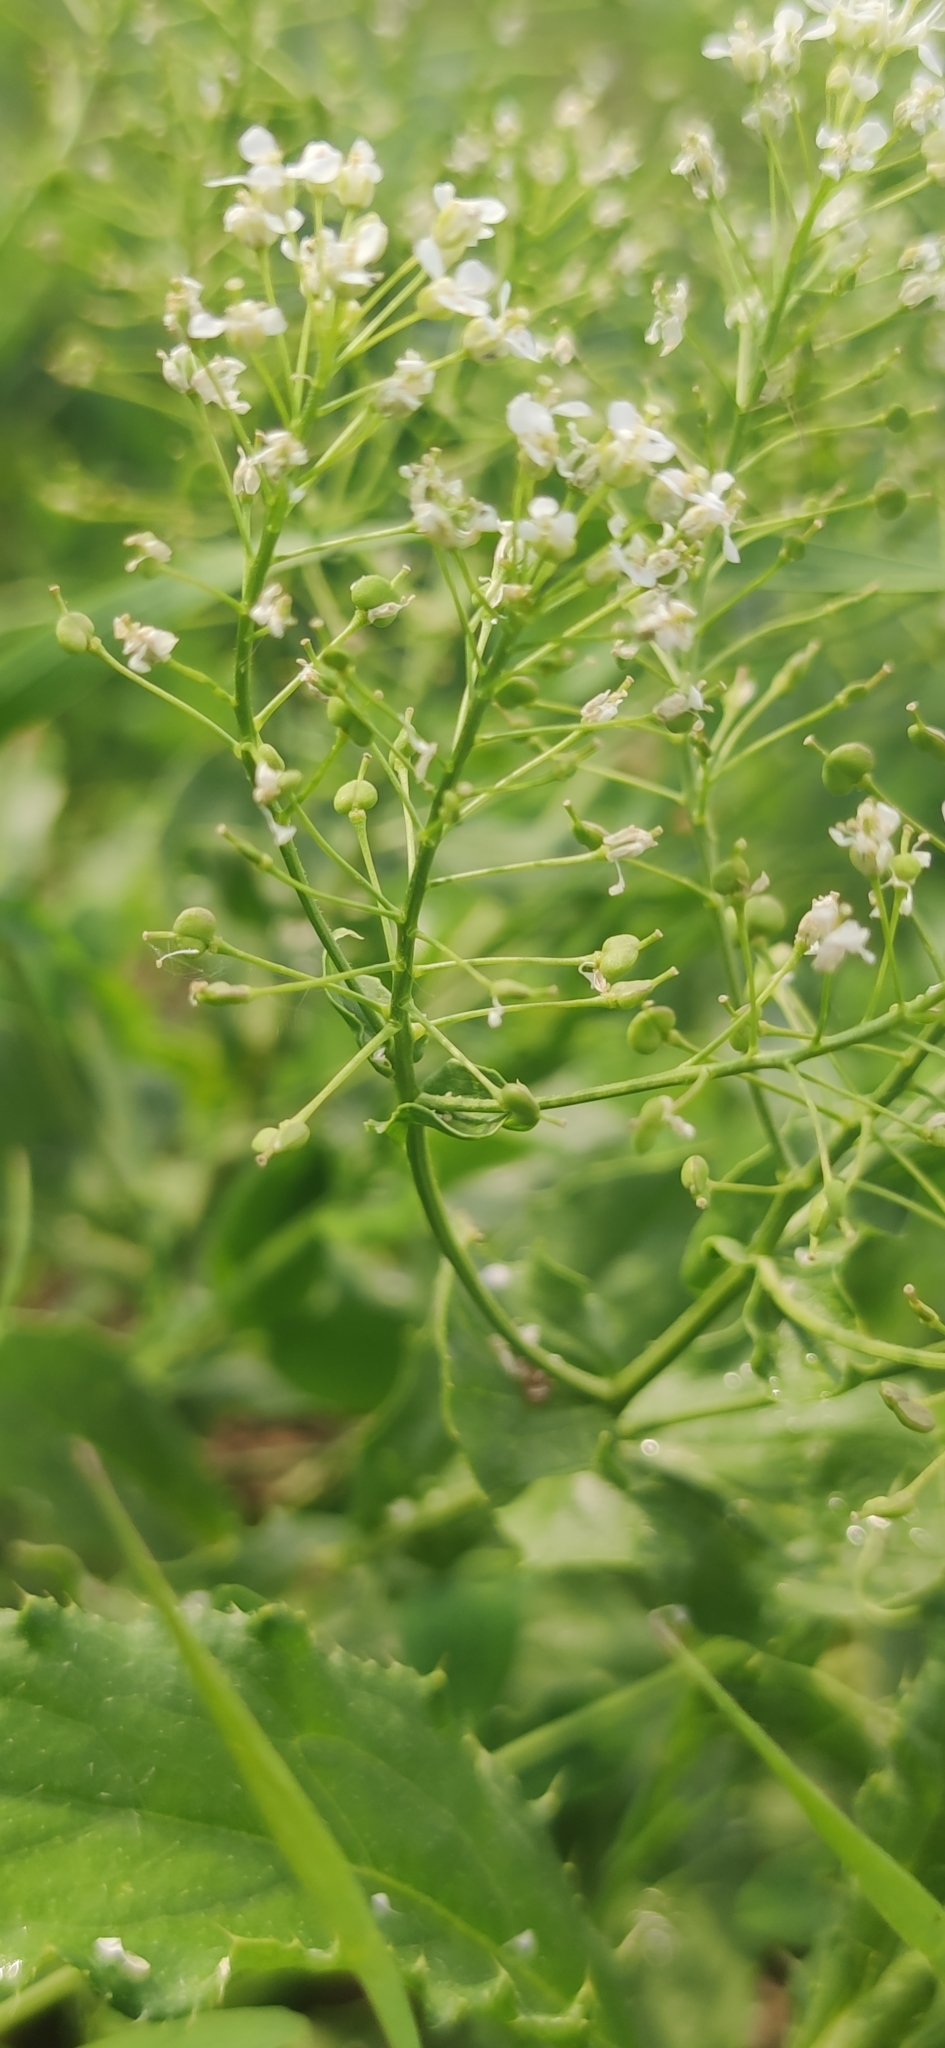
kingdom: Plantae
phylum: Tracheophyta
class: Magnoliopsida
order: Brassicales
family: Brassicaceae
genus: Lepidium
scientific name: Lepidium draba
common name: Hoary cress
